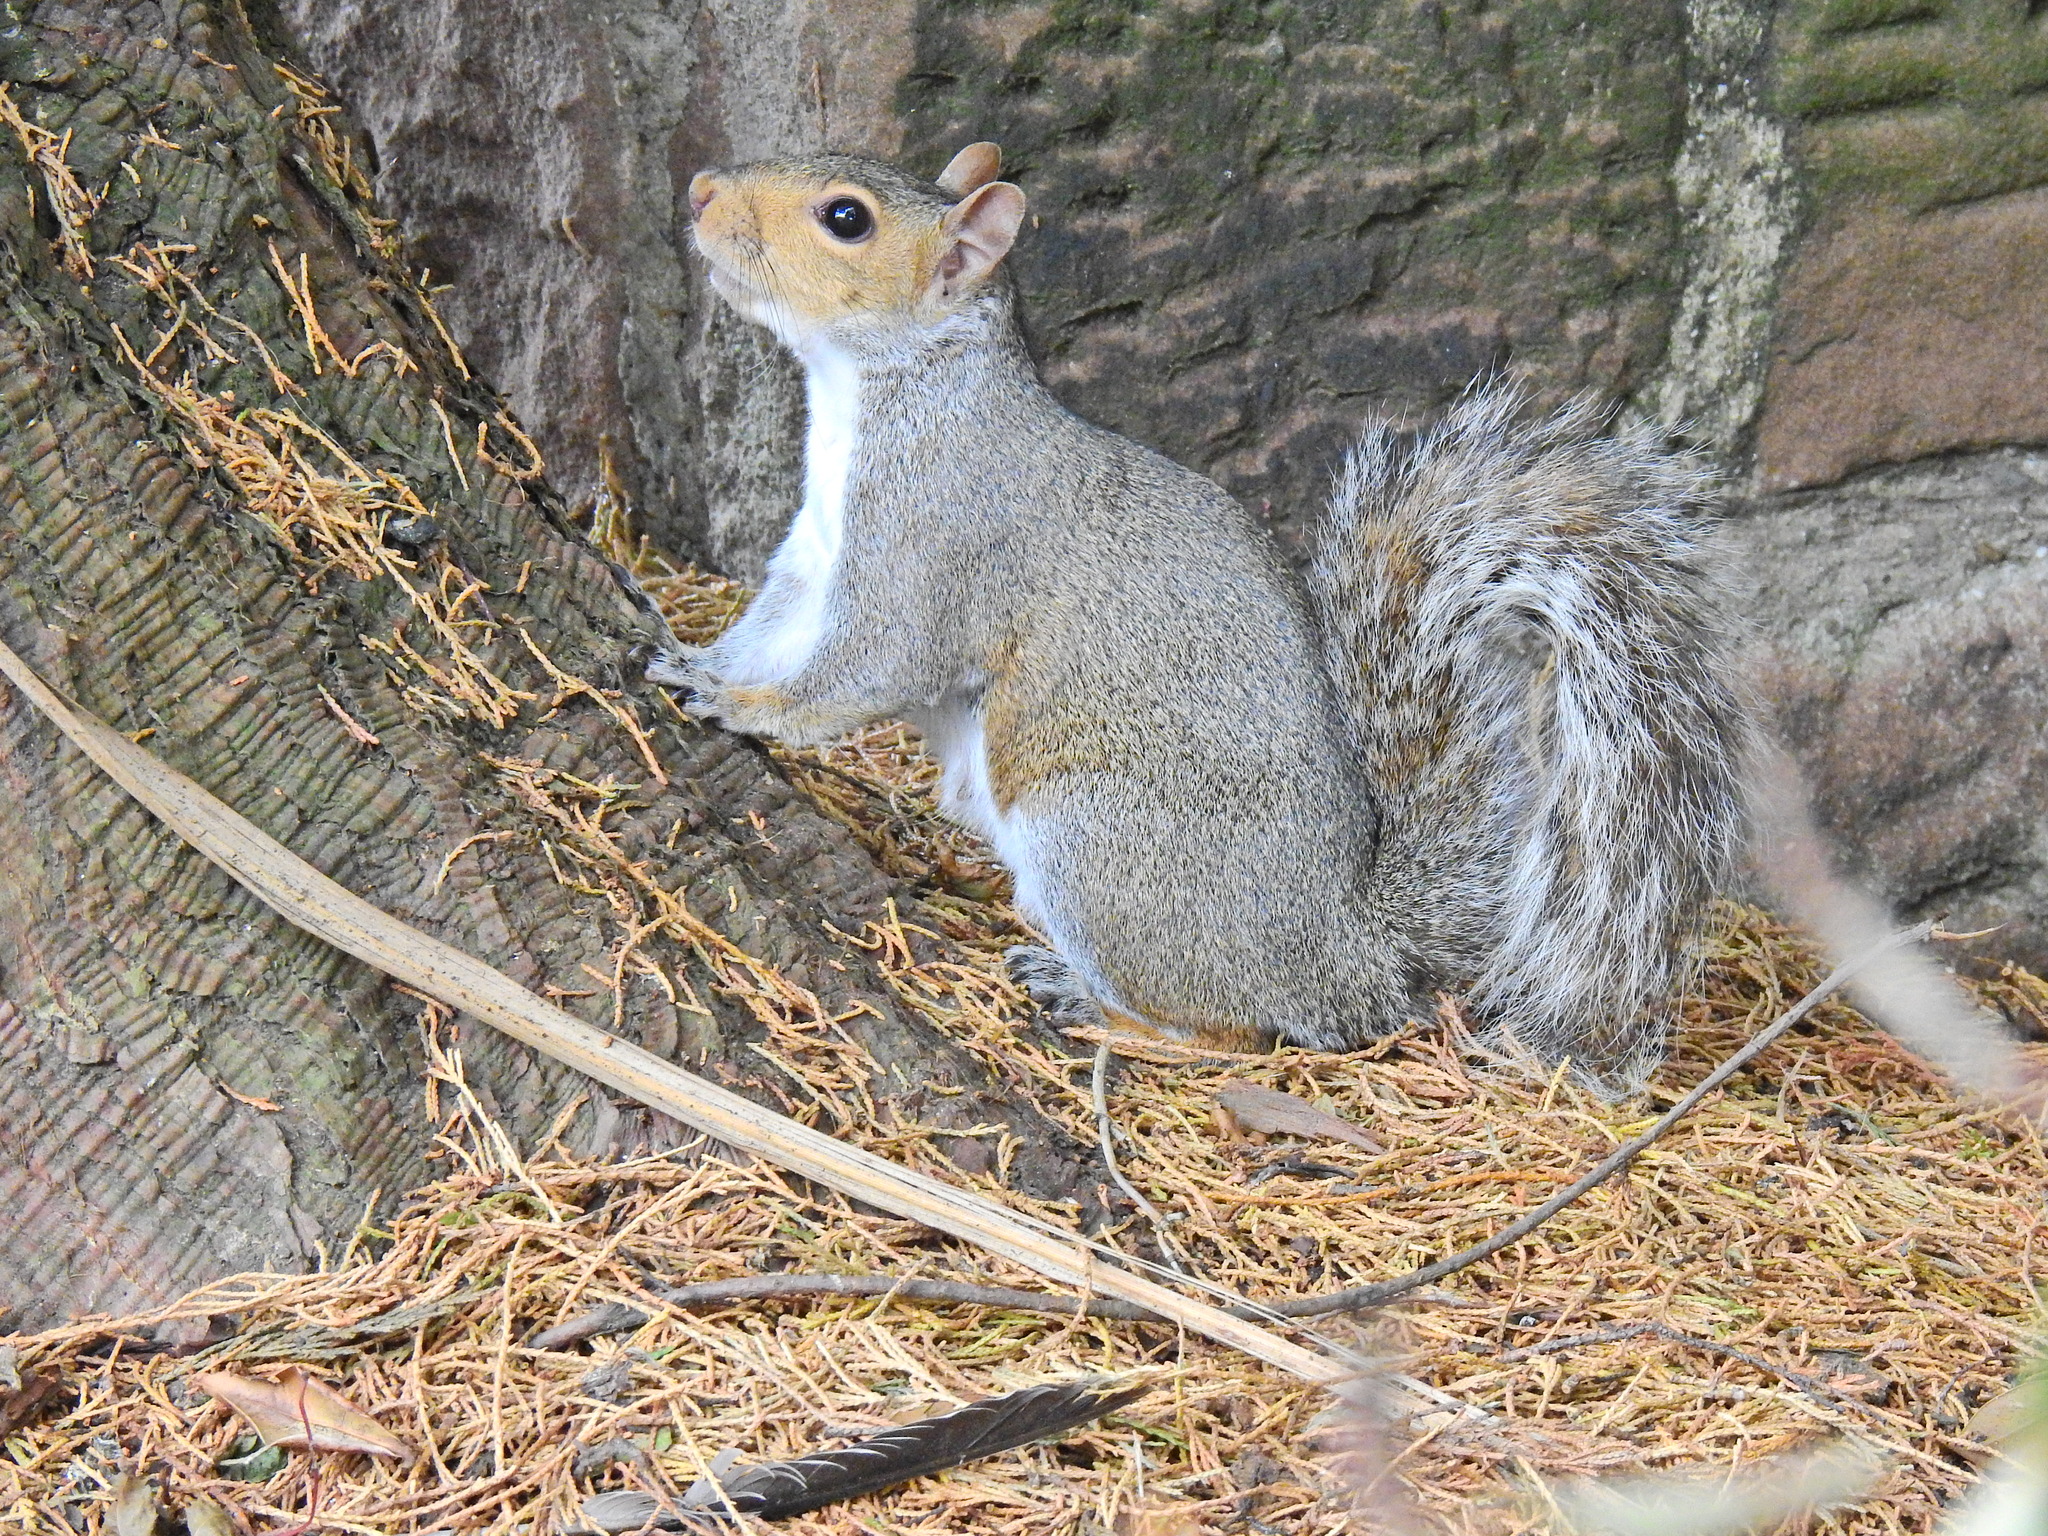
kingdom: Animalia
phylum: Chordata
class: Mammalia
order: Rodentia
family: Sciuridae
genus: Sciurus
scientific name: Sciurus carolinensis
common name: Eastern gray squirrel
